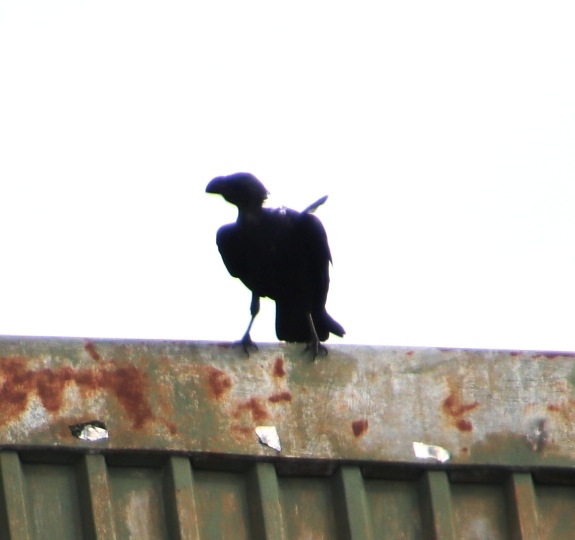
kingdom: Animalia
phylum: Chordata
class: Aves
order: Passeriformes
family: Corvidae
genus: Corvus
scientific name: Corvus albicollis
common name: White-necked raven
